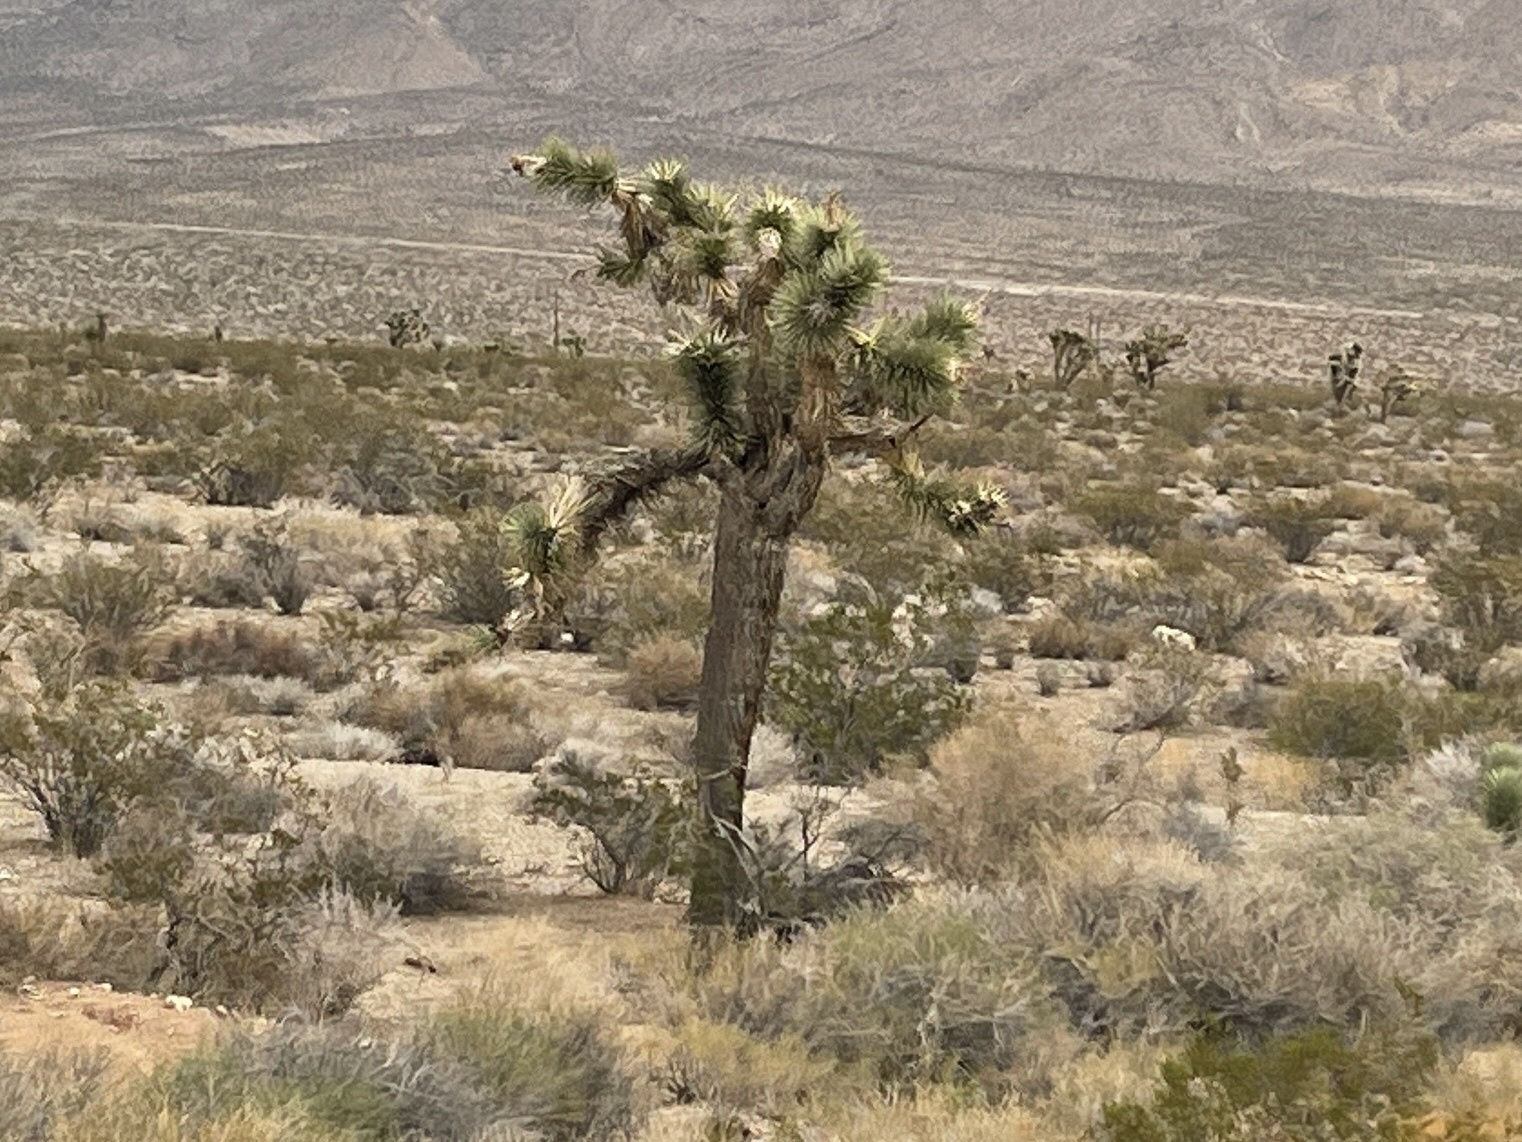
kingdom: Plantae
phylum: Tracheophyta
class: Liliopsida
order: Asparagales
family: Asparagaceae
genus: Yucca
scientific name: Yucca brevifolia
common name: Joshua tree
